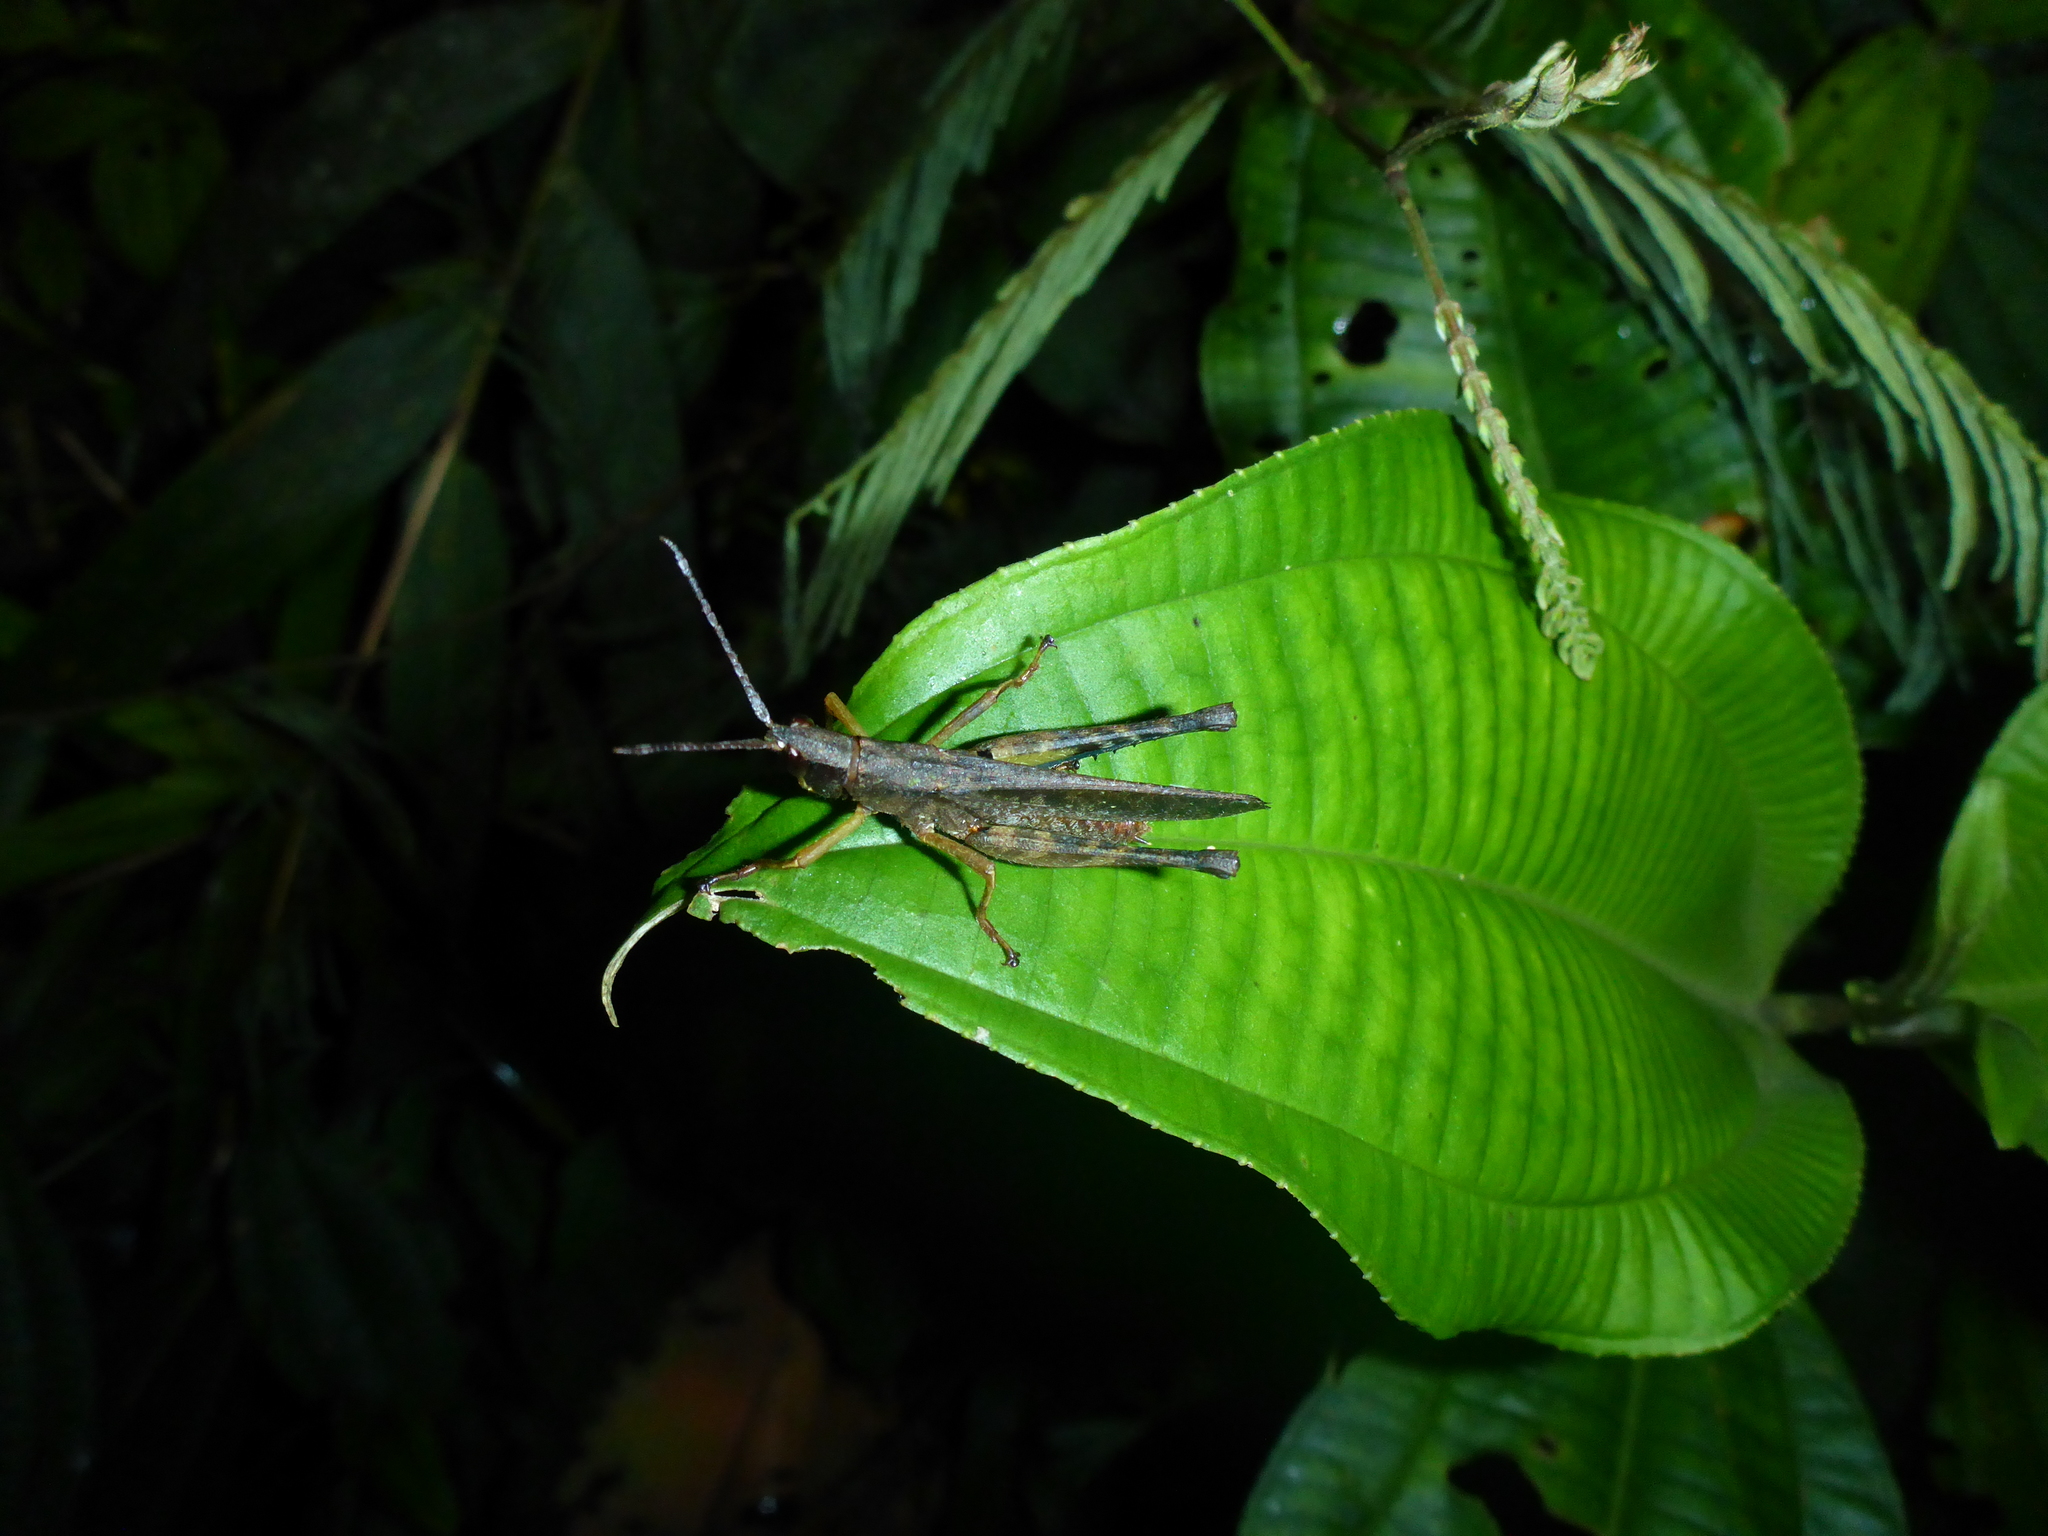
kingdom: Animalia
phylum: Arthropoda
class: Insecta
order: Orthoptera
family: Romaleidae
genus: Phaeoparia
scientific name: Phaeoparia lineaalba
